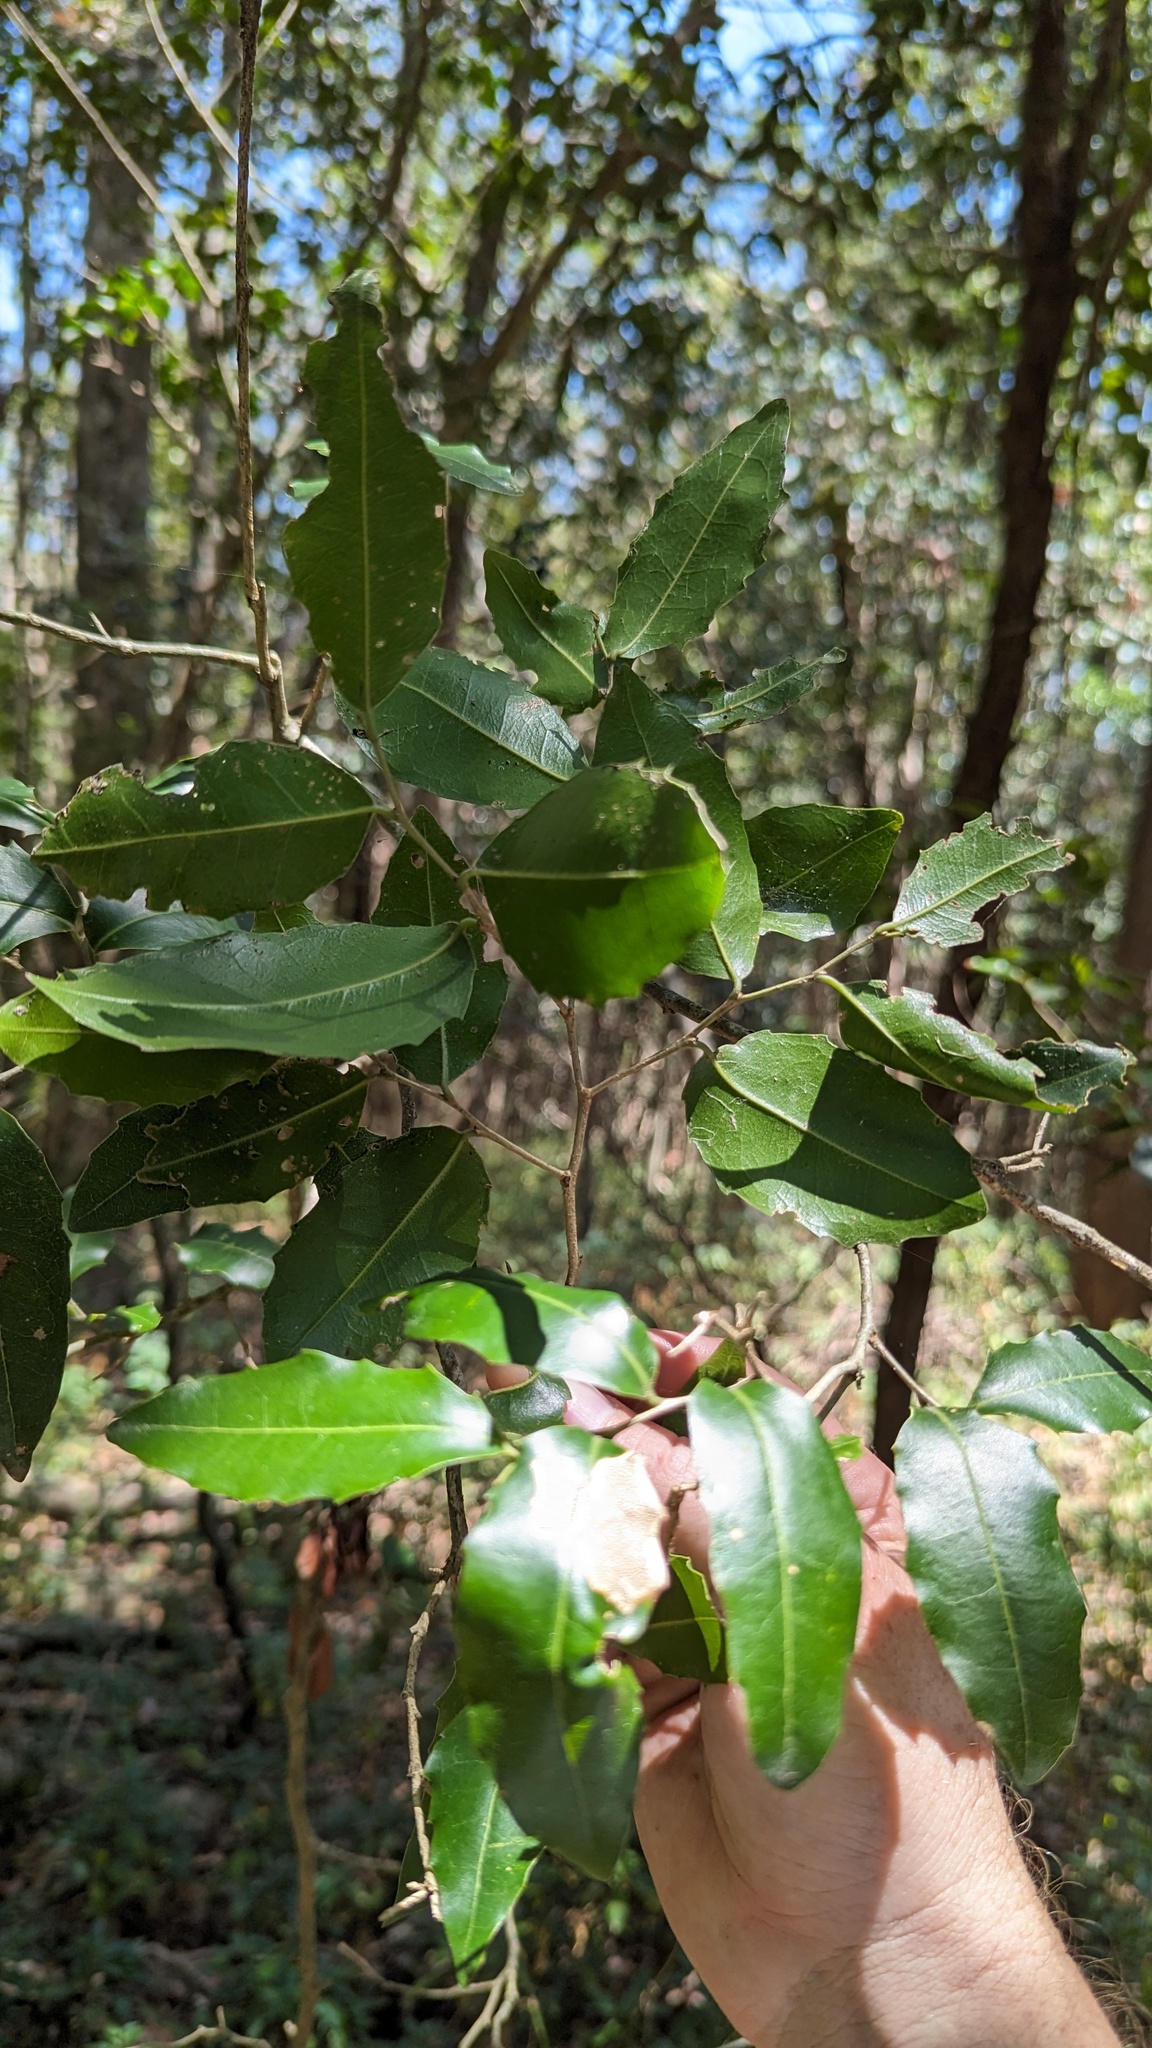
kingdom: Plantae
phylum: Tracheophyta
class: Magnoliopsida
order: Malpighiales
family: Putranjivaceae
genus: Drypetes
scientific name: Drypetes deplanchei
